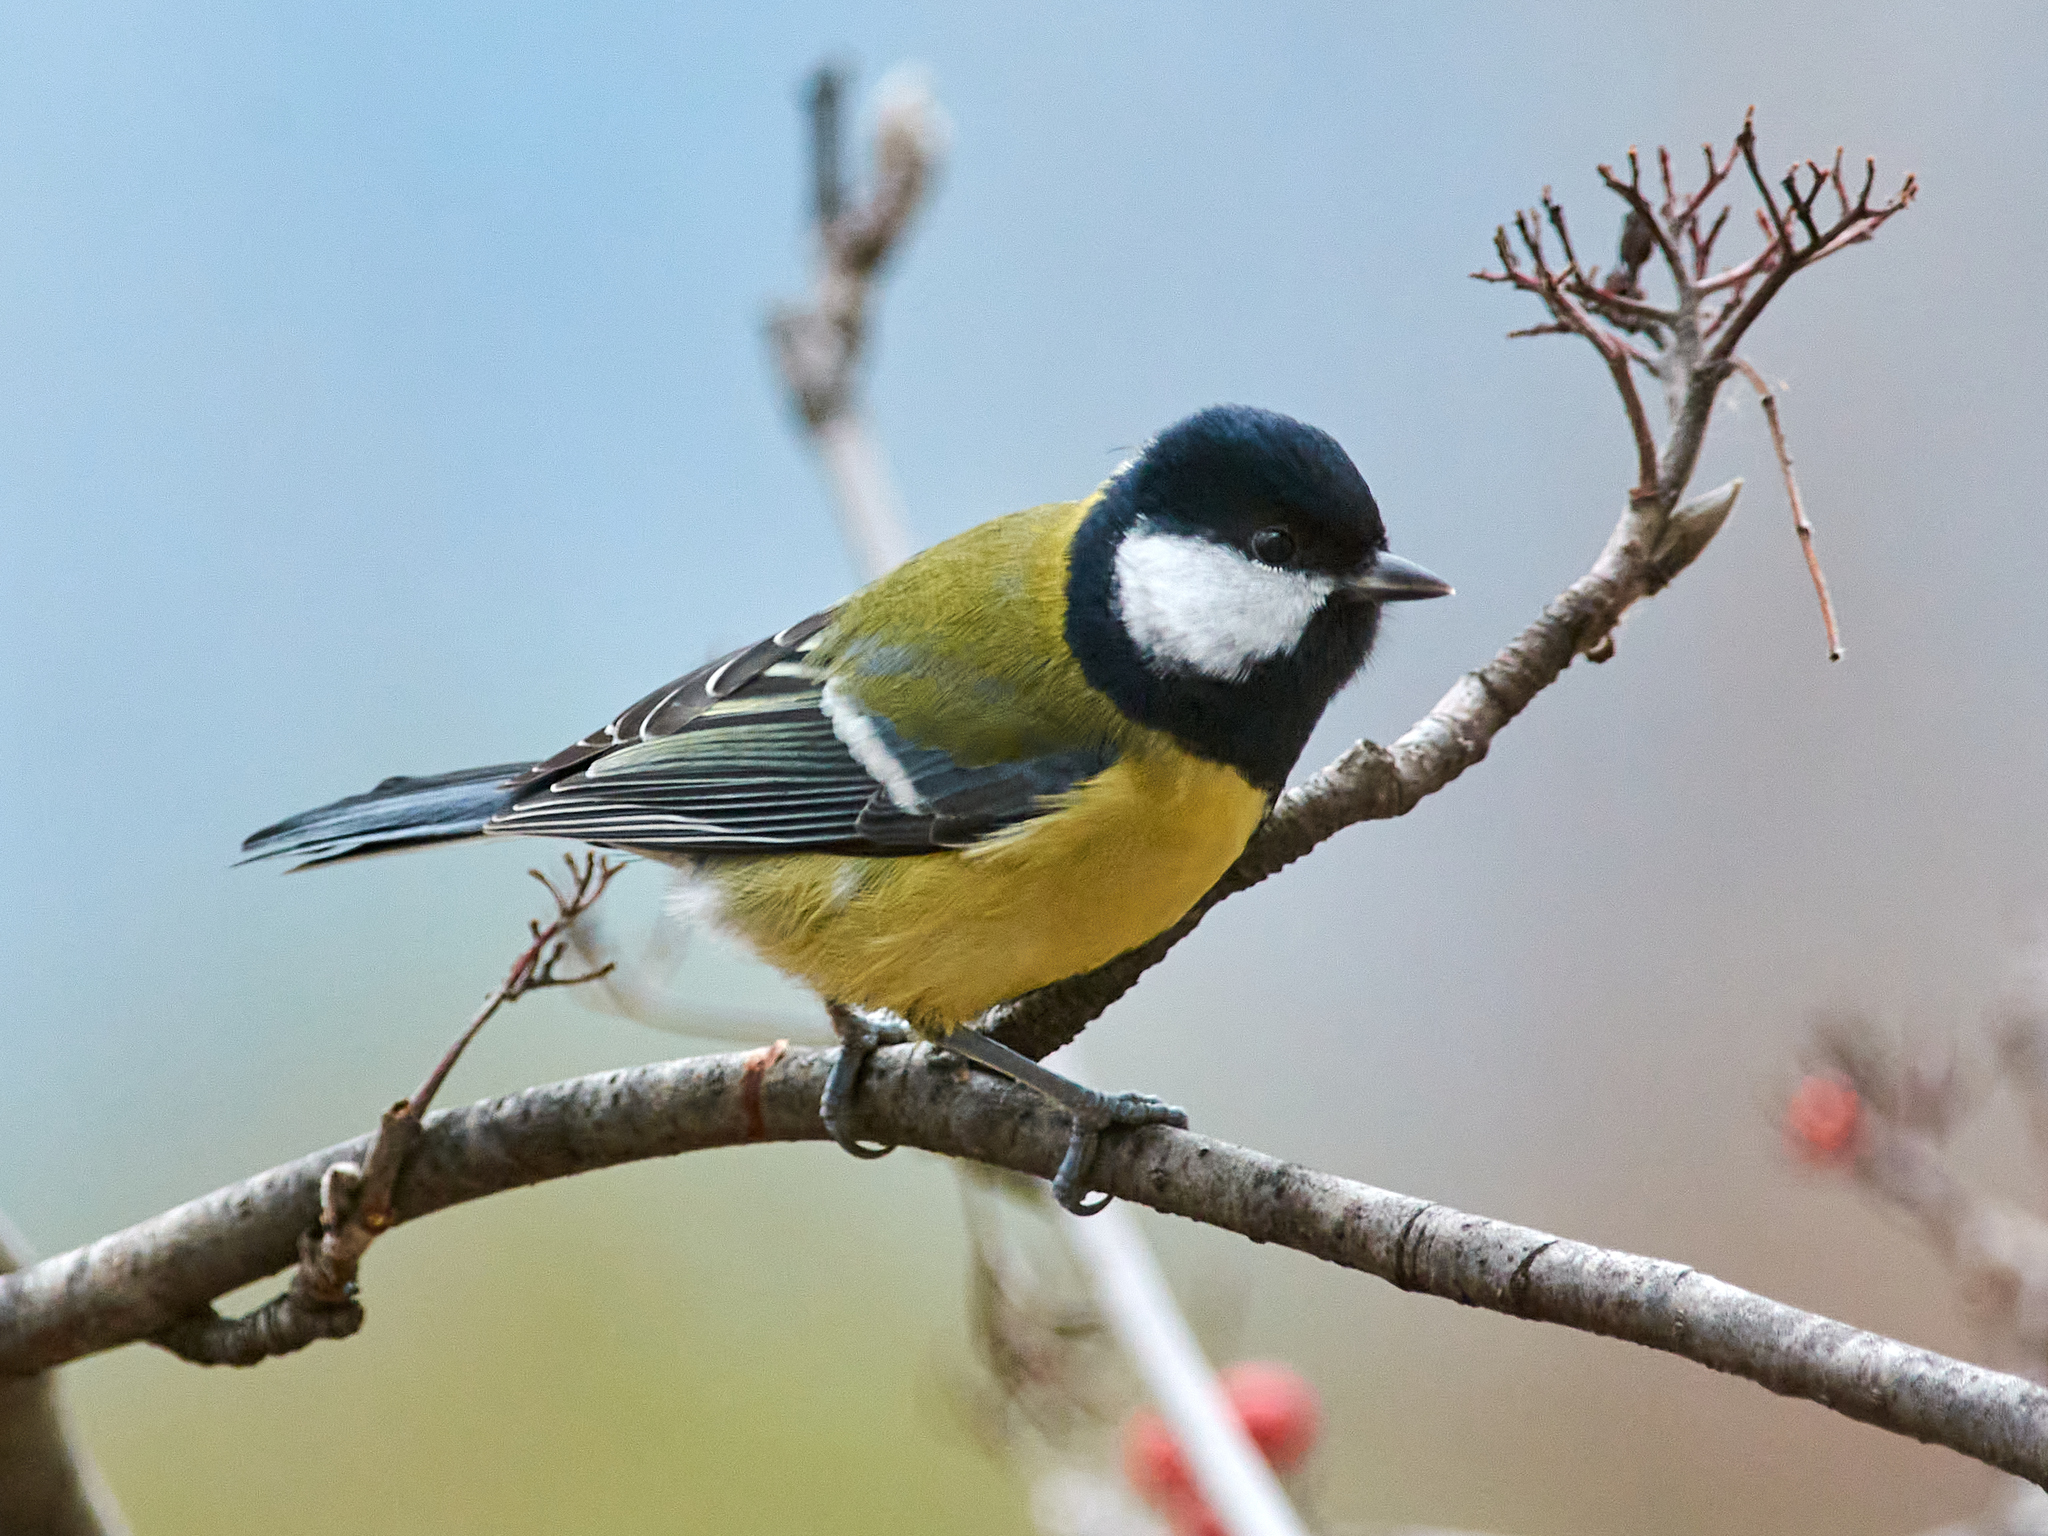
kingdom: Animalia
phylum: Chordata
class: Aves
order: Passeriformes
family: Paridae
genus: Parus
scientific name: Parus major
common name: Great tit
